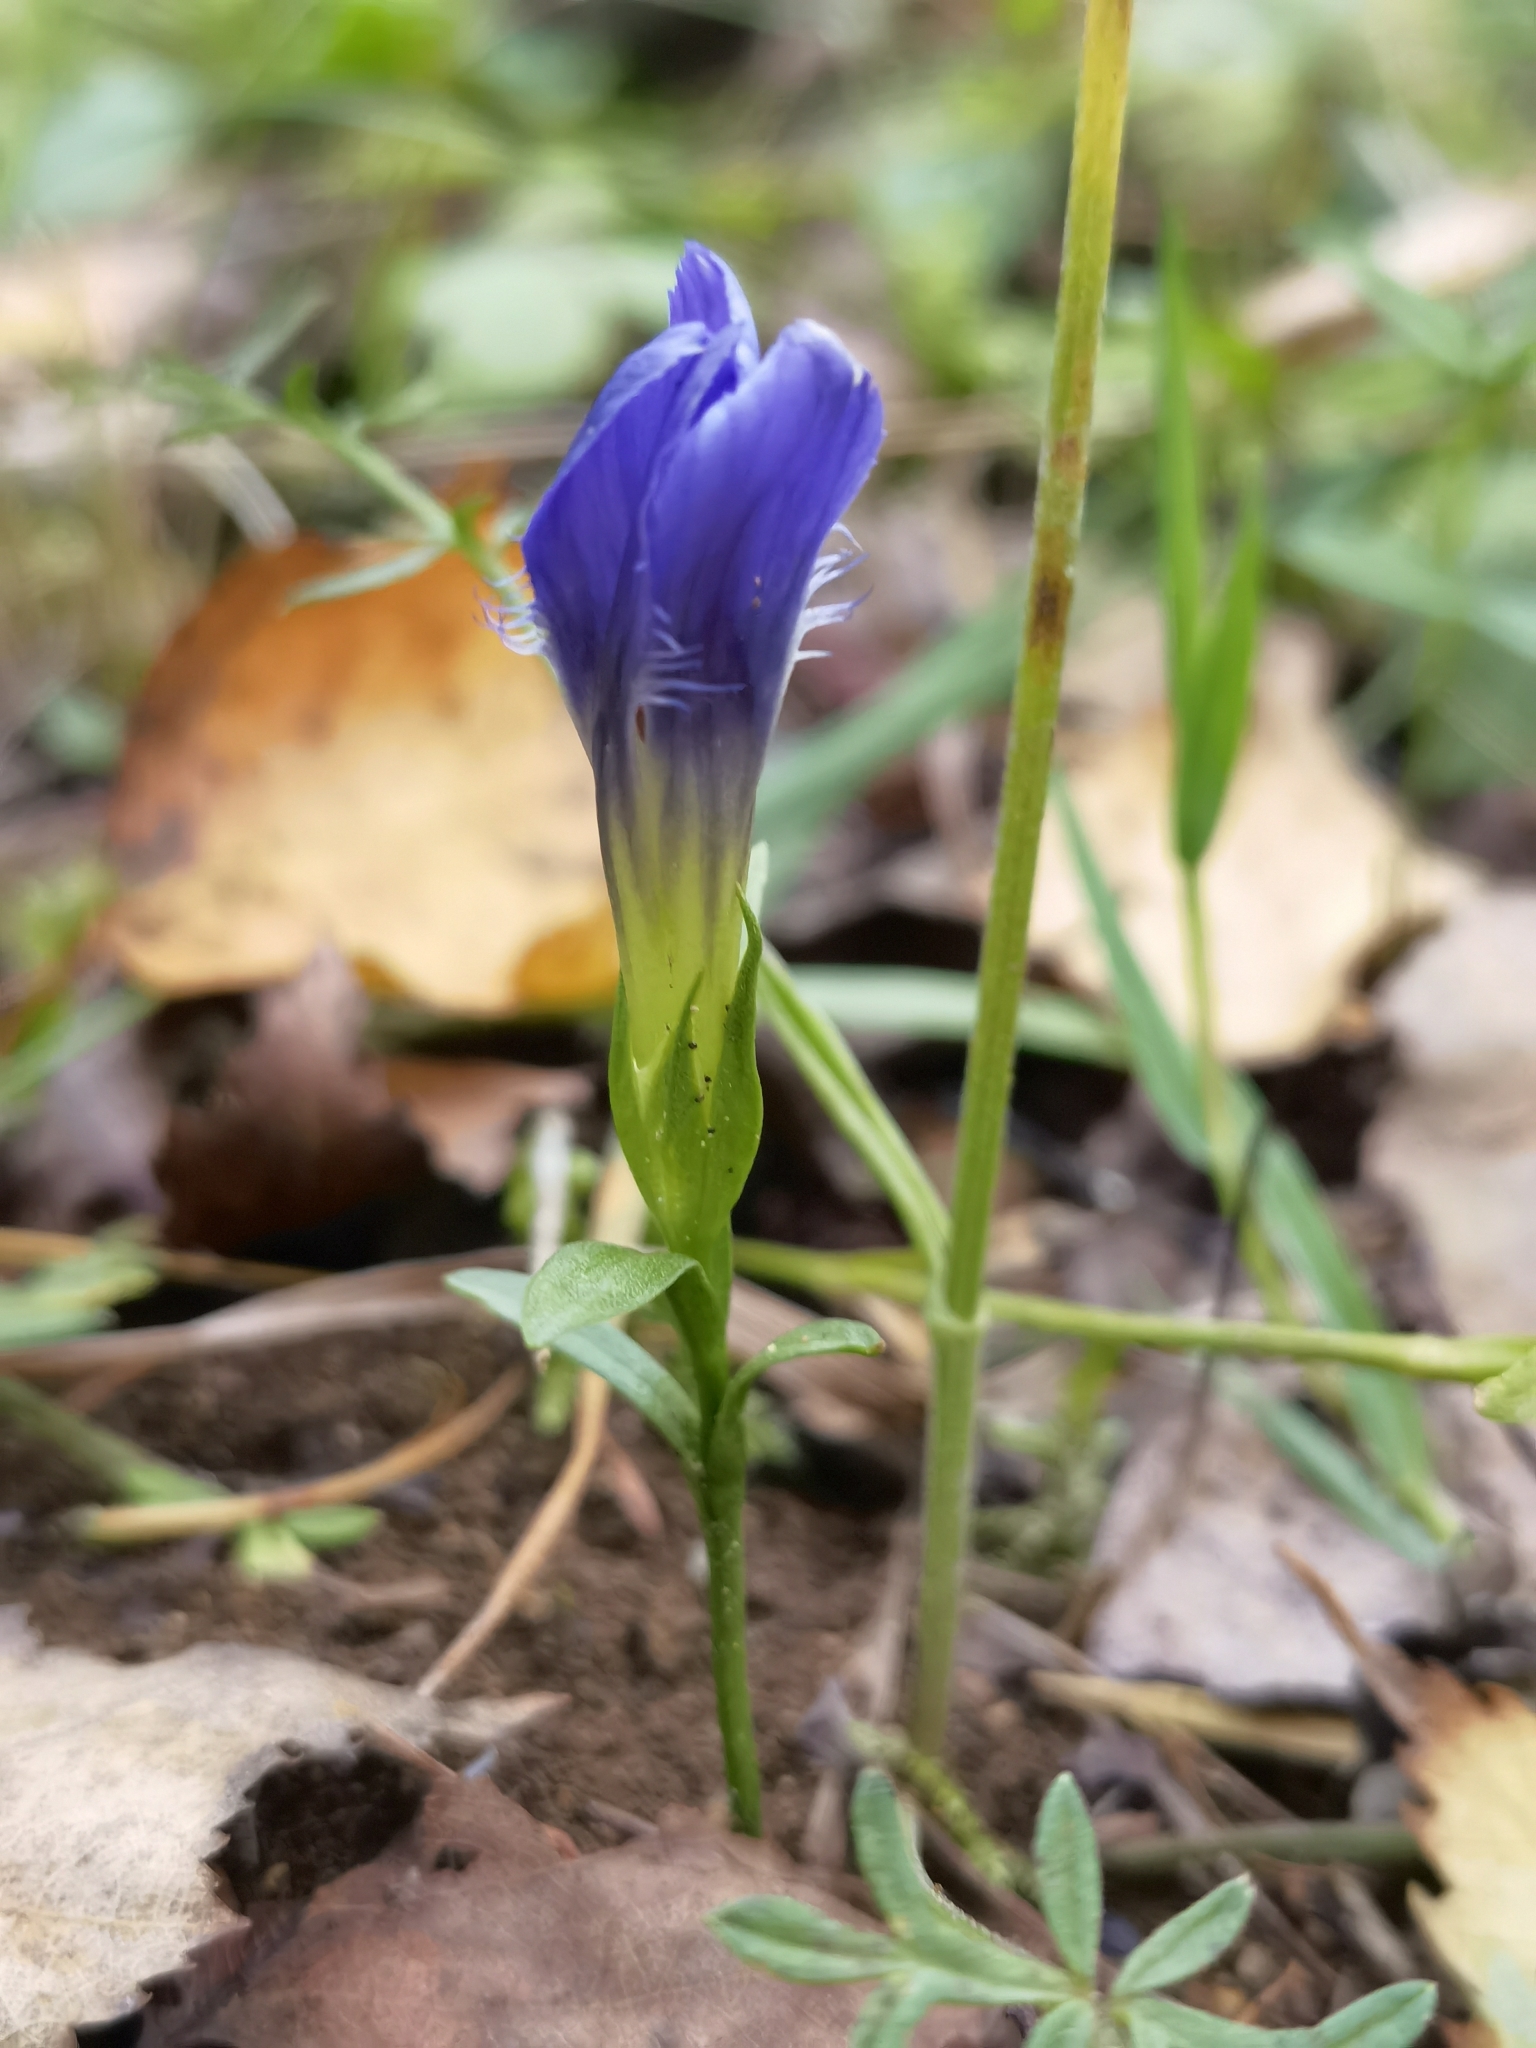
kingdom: Plantae
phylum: Tracheophyta
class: Magnoliopsida
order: Gentianales
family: Gentianaceae
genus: Gentianopsis
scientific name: Gentianopsis ciliata
